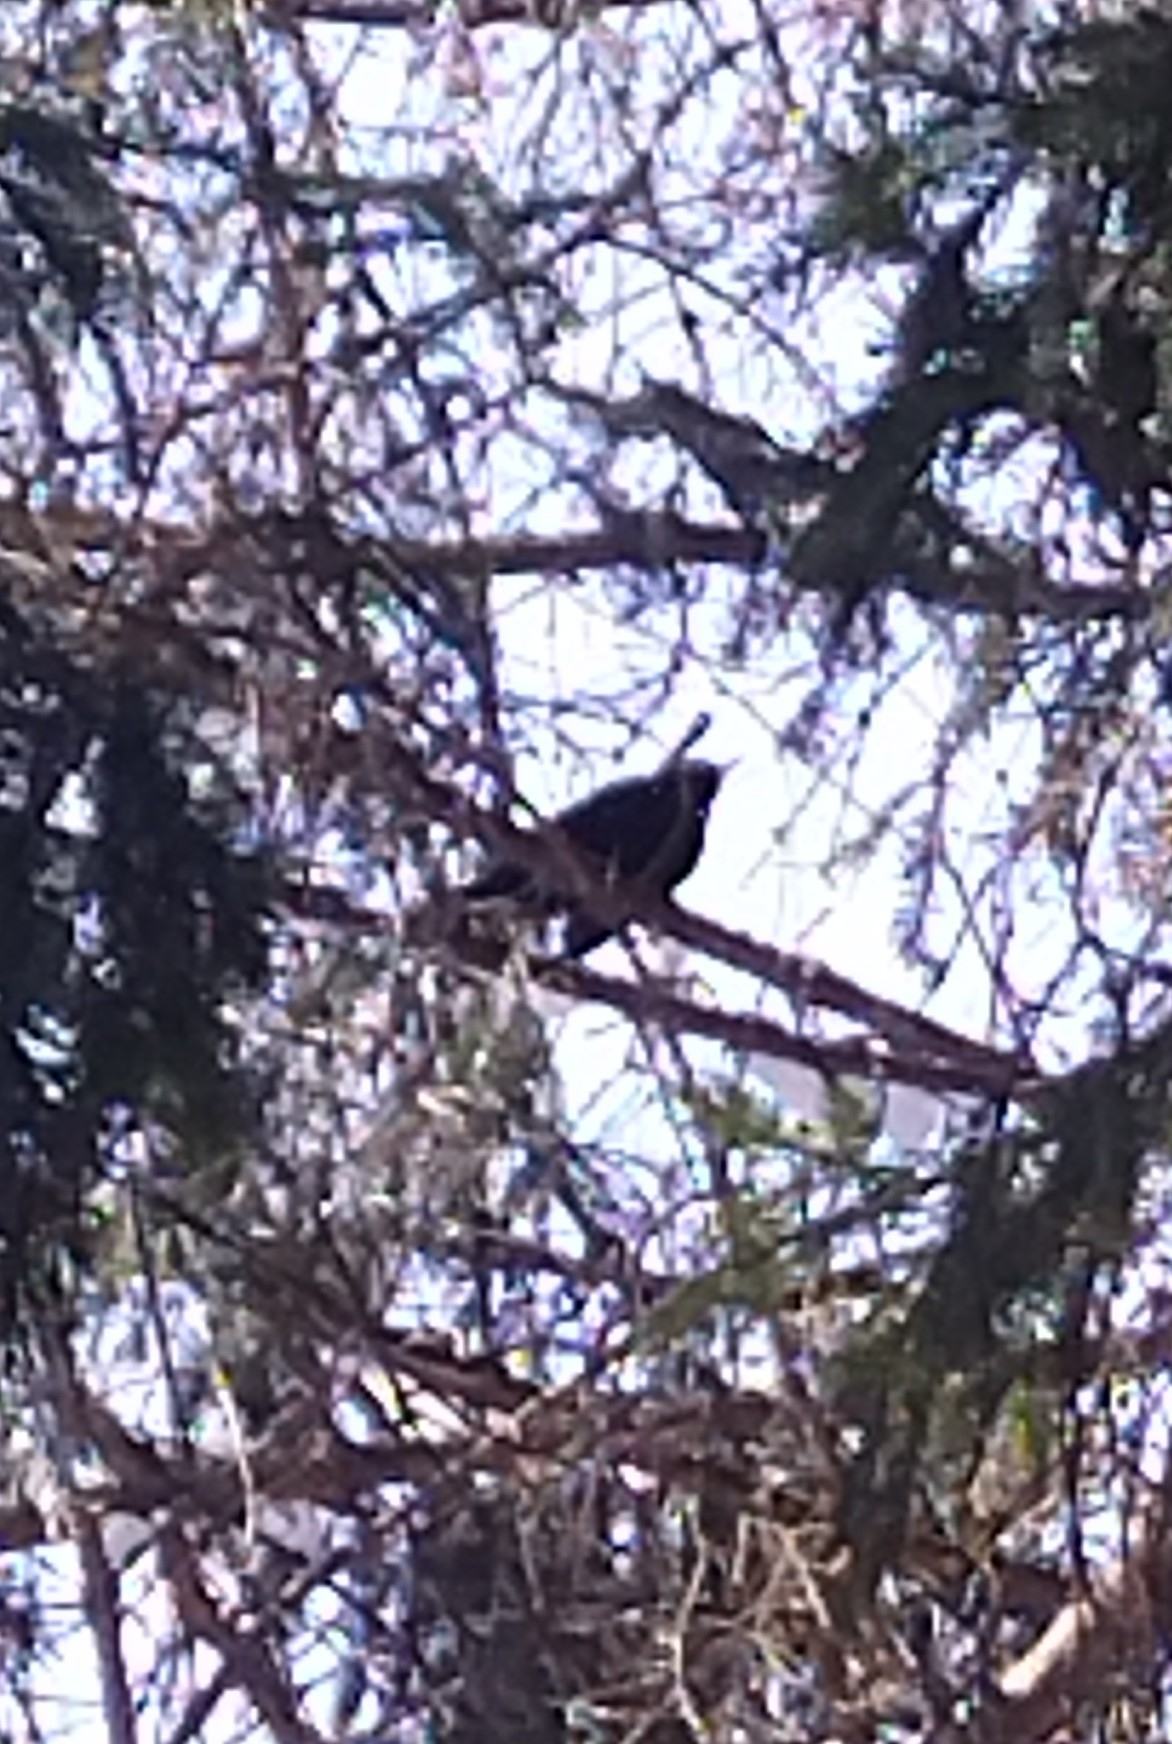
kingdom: Animalia
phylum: Chordata
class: Aves
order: Passeriformes
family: Turdidae
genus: Turdus
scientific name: Turdus merula
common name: Common blackbird
